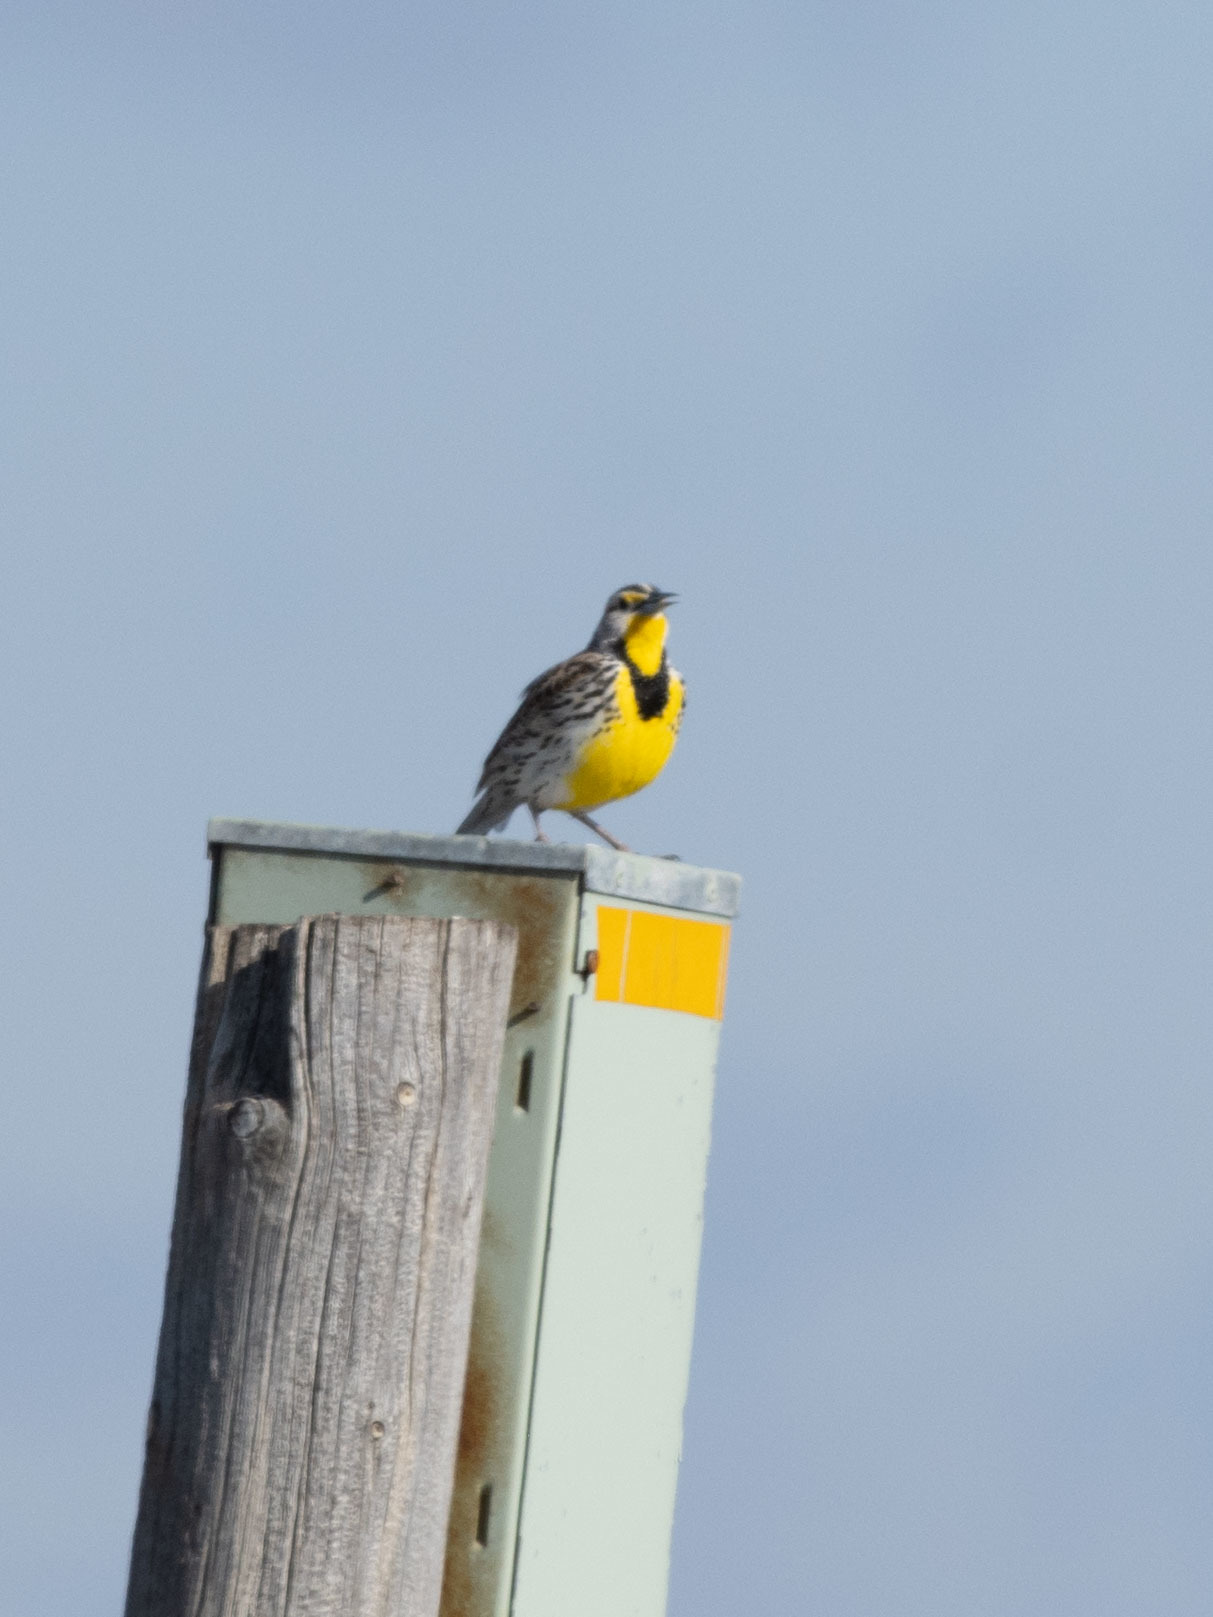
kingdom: Animalia
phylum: Chordata
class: Aves
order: Passeriformes
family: Icteridae
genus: Sturnella
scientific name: Sturnella neglecta
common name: Western meadowlark
